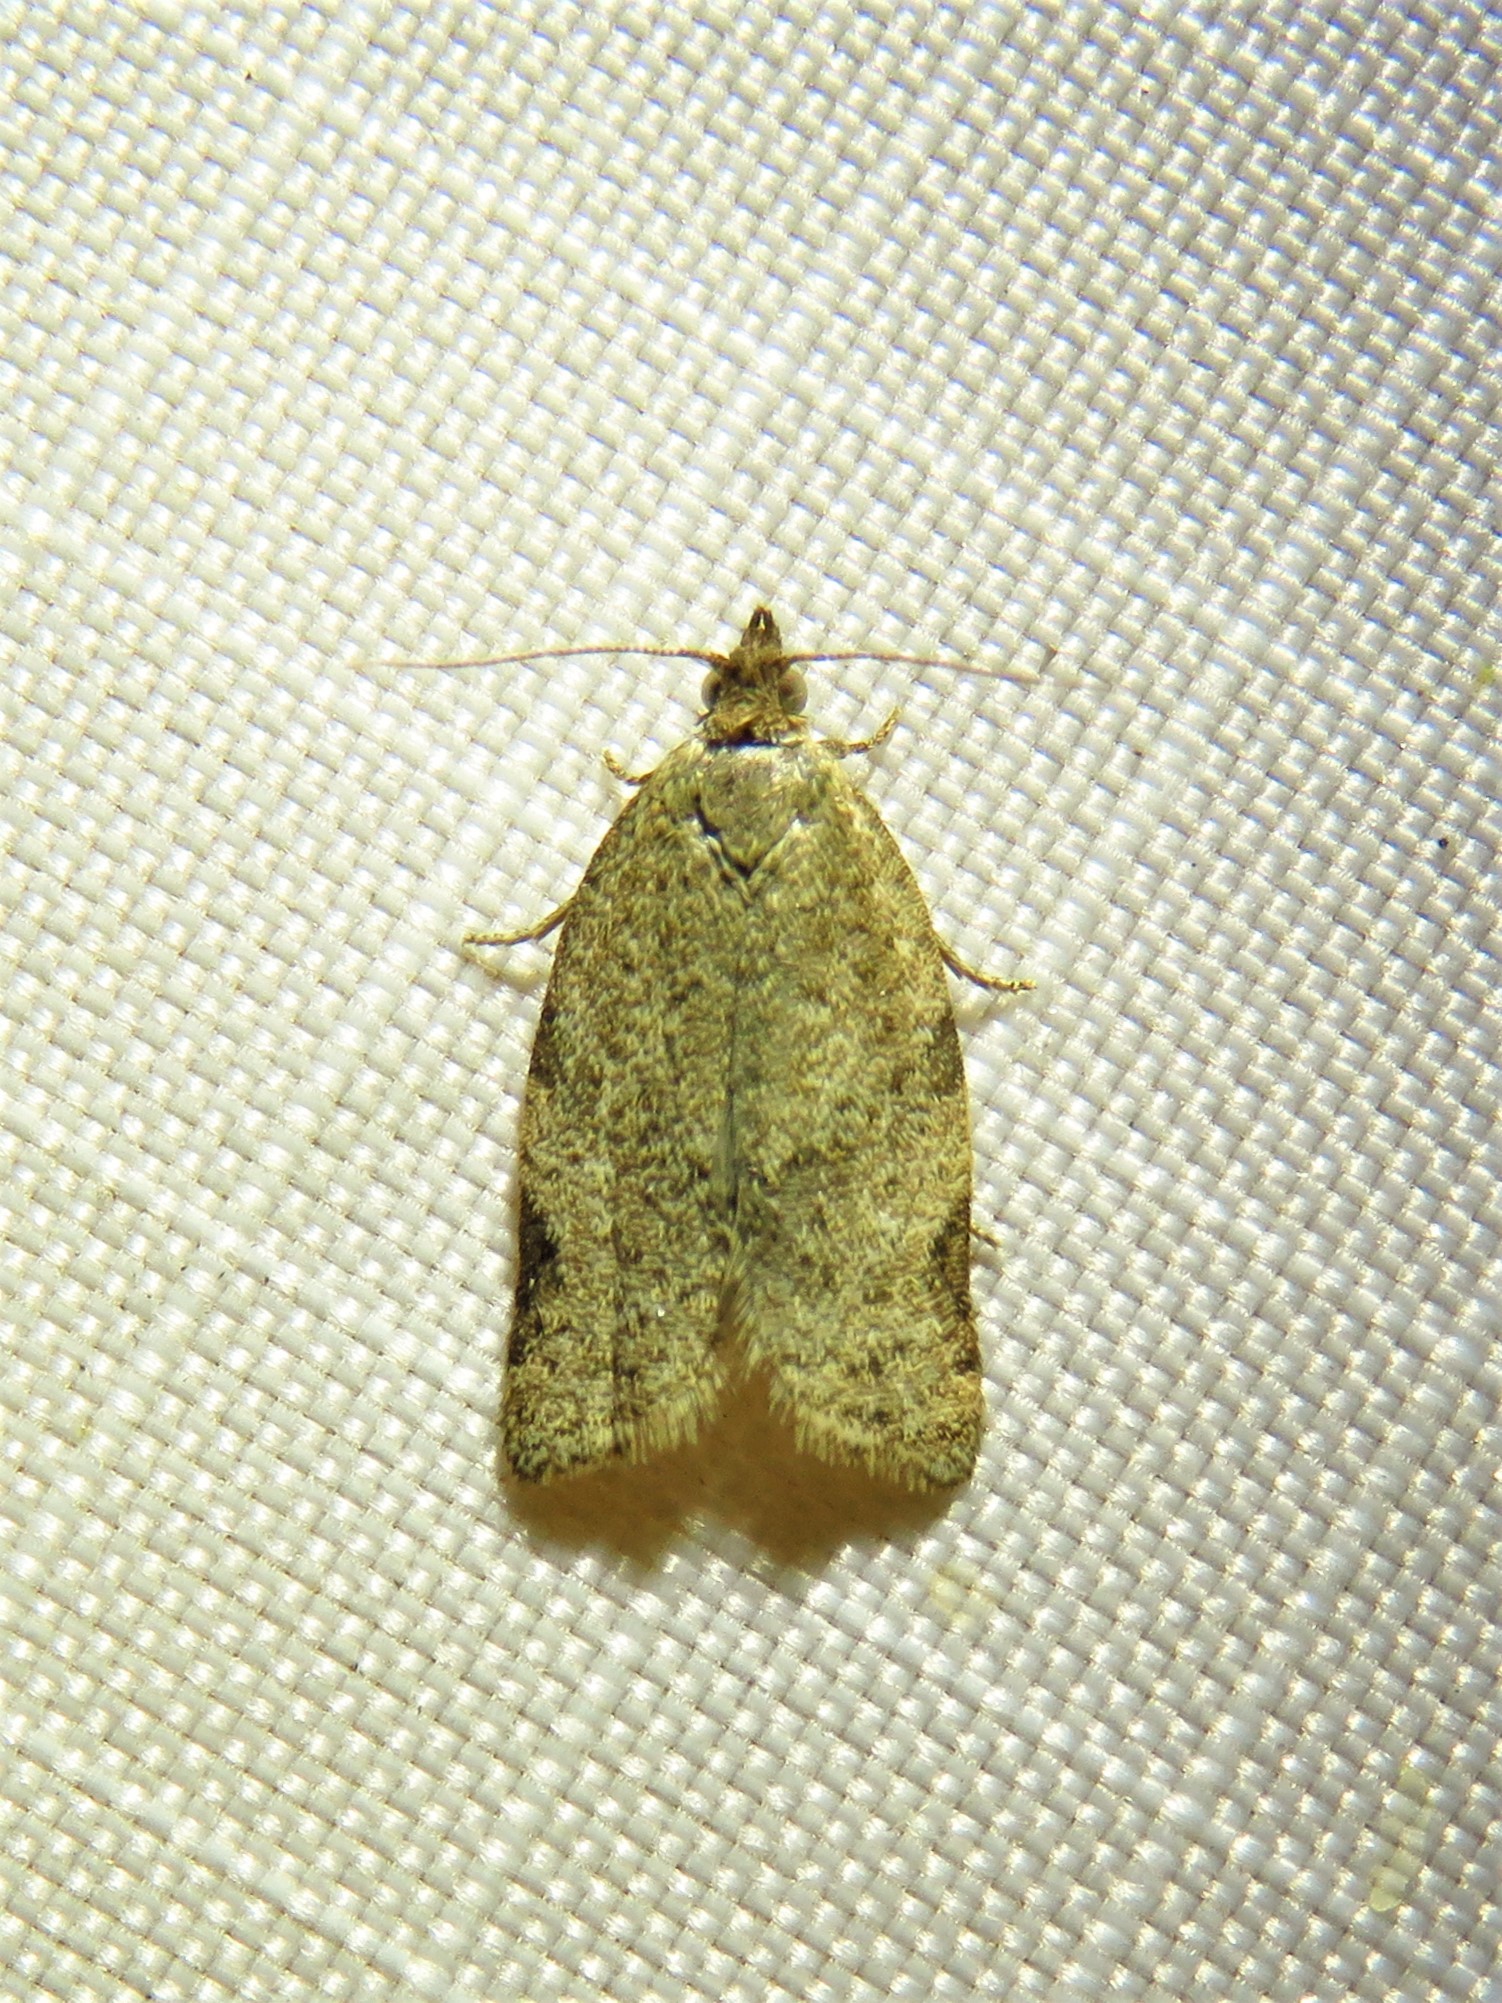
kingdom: Animalia
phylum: Arthropoda
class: Insecta
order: Lepidoptera
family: Tortricidae
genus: Clepsis
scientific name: Clepsis virescana
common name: Greenish apple moth
